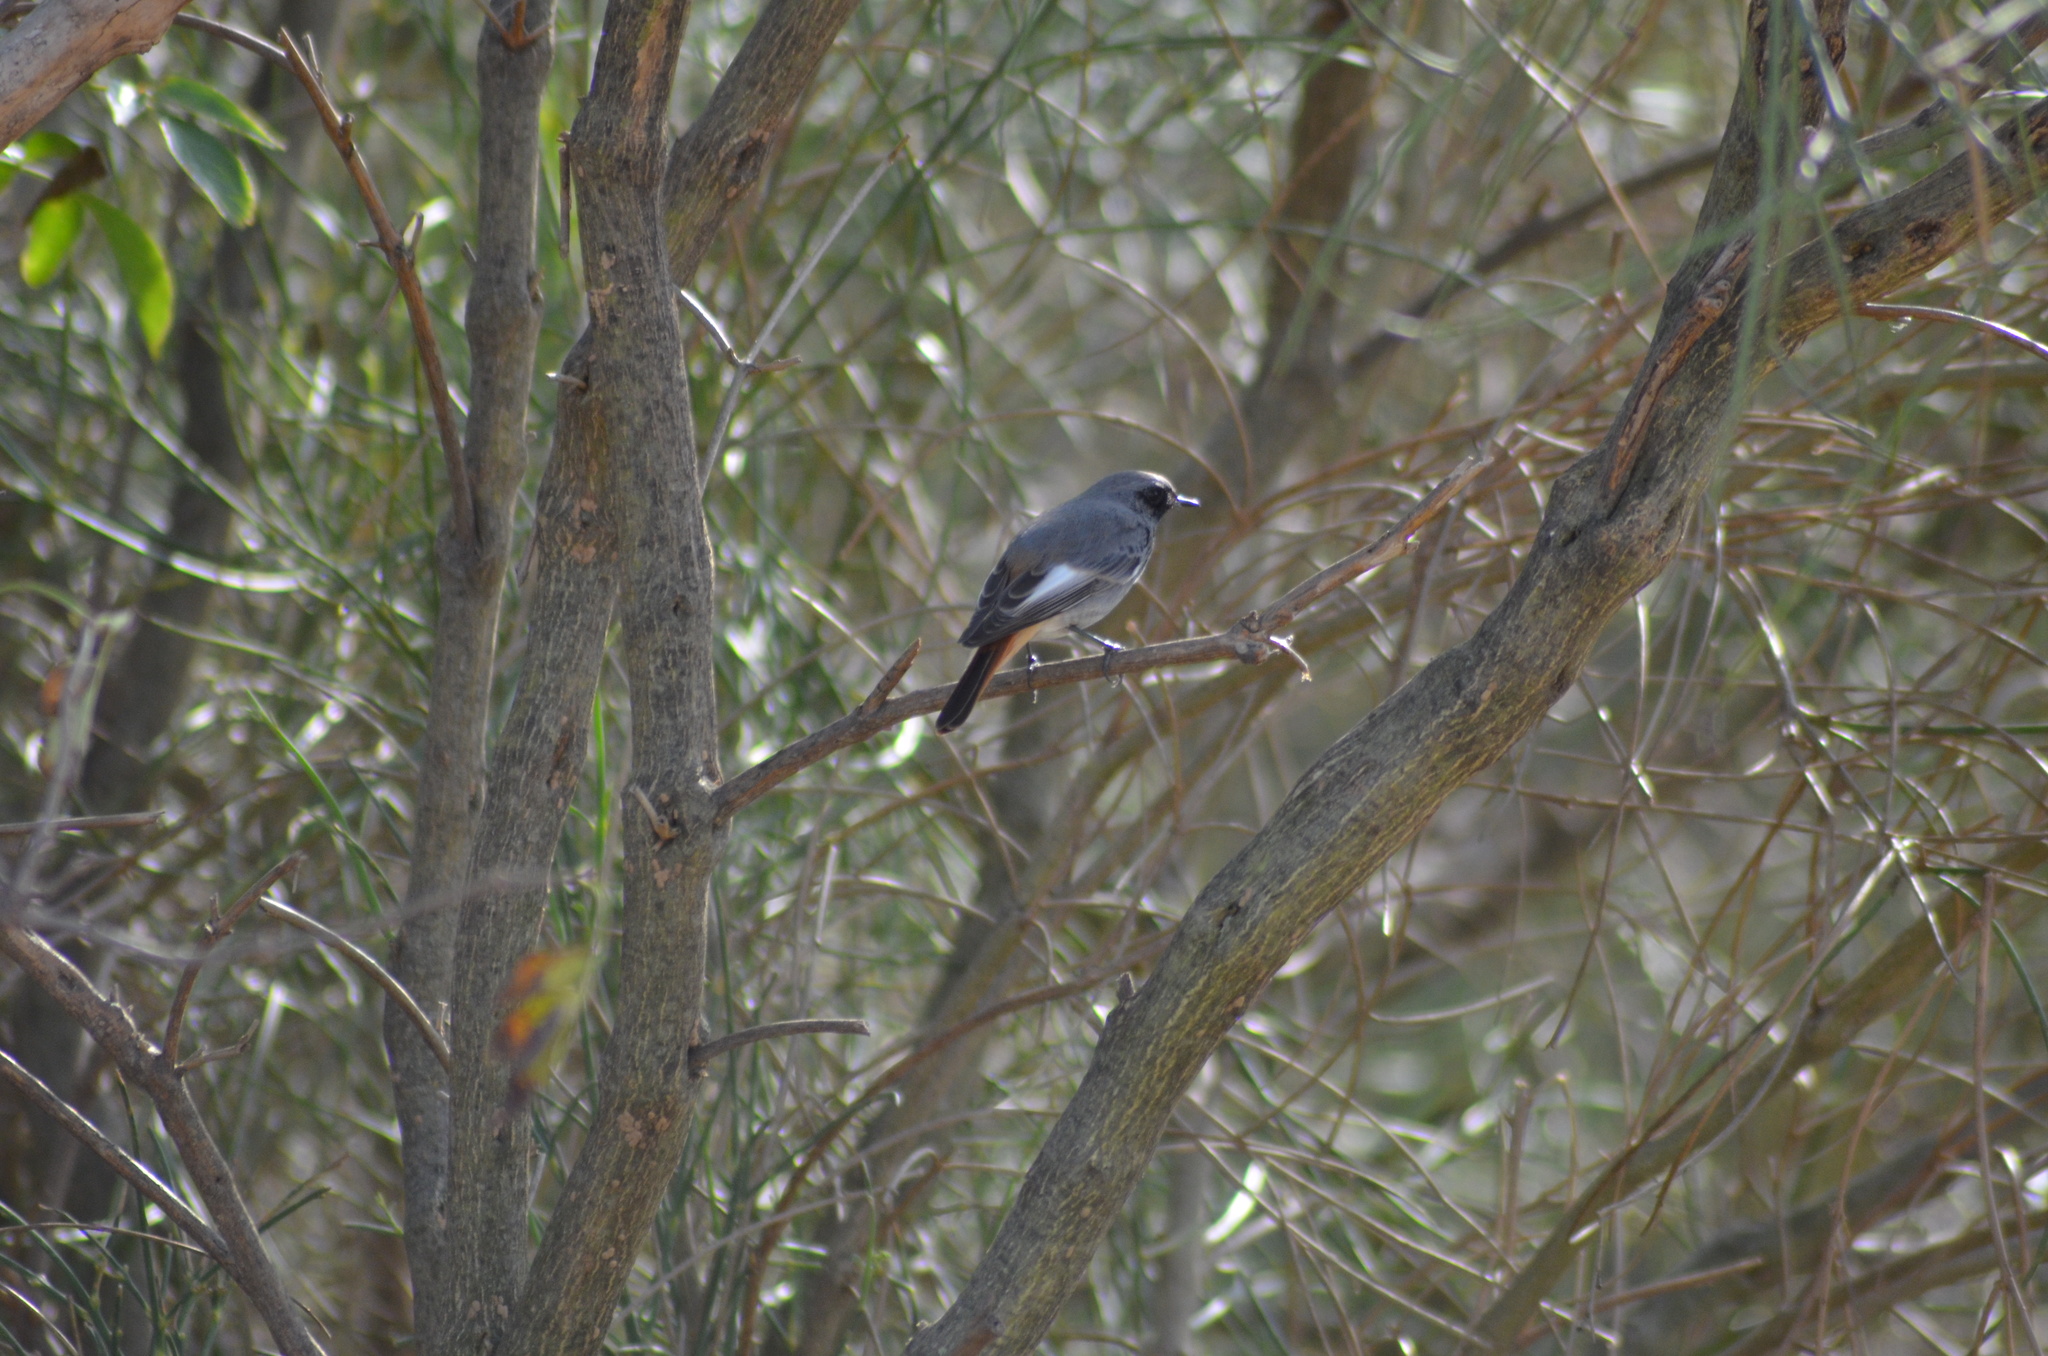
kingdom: Animalia
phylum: Chordata
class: Aves
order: Passeriformes
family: Muscicapidae
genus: Phoenicurus
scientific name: Phoenicurus ochruros
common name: Black redstart
